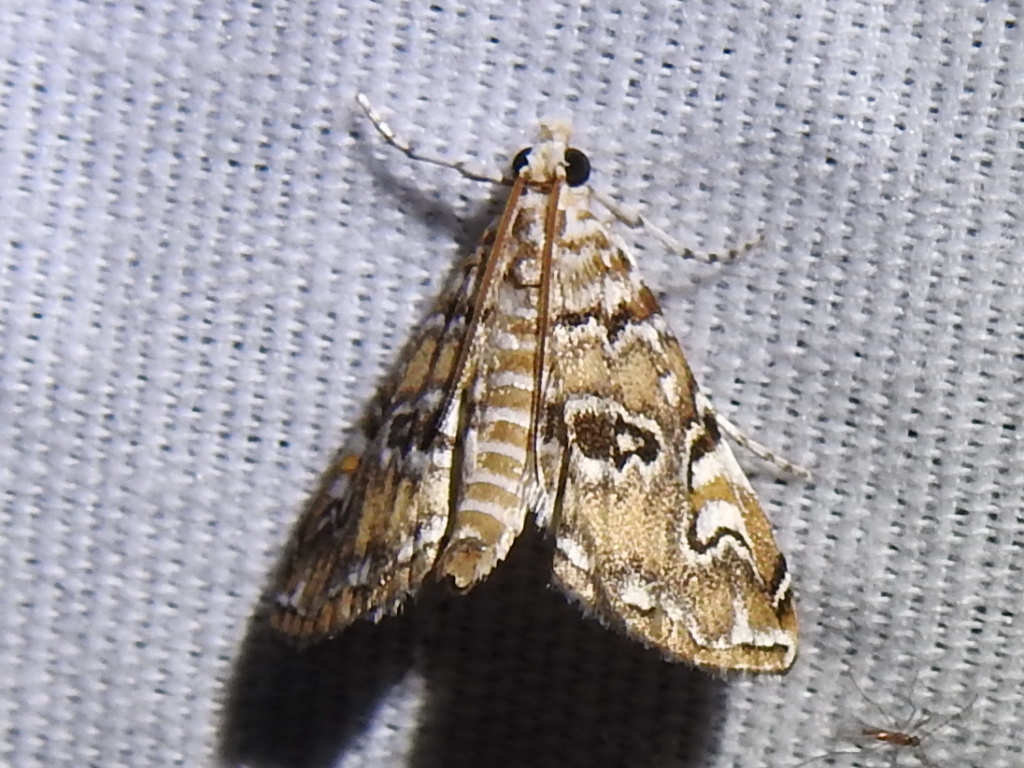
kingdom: Animalia
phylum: Arthropoda
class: Insecta
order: Lepidoptera
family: Crambidae
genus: Elophila
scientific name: Elophila gyralis
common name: Waterlily borer moth
